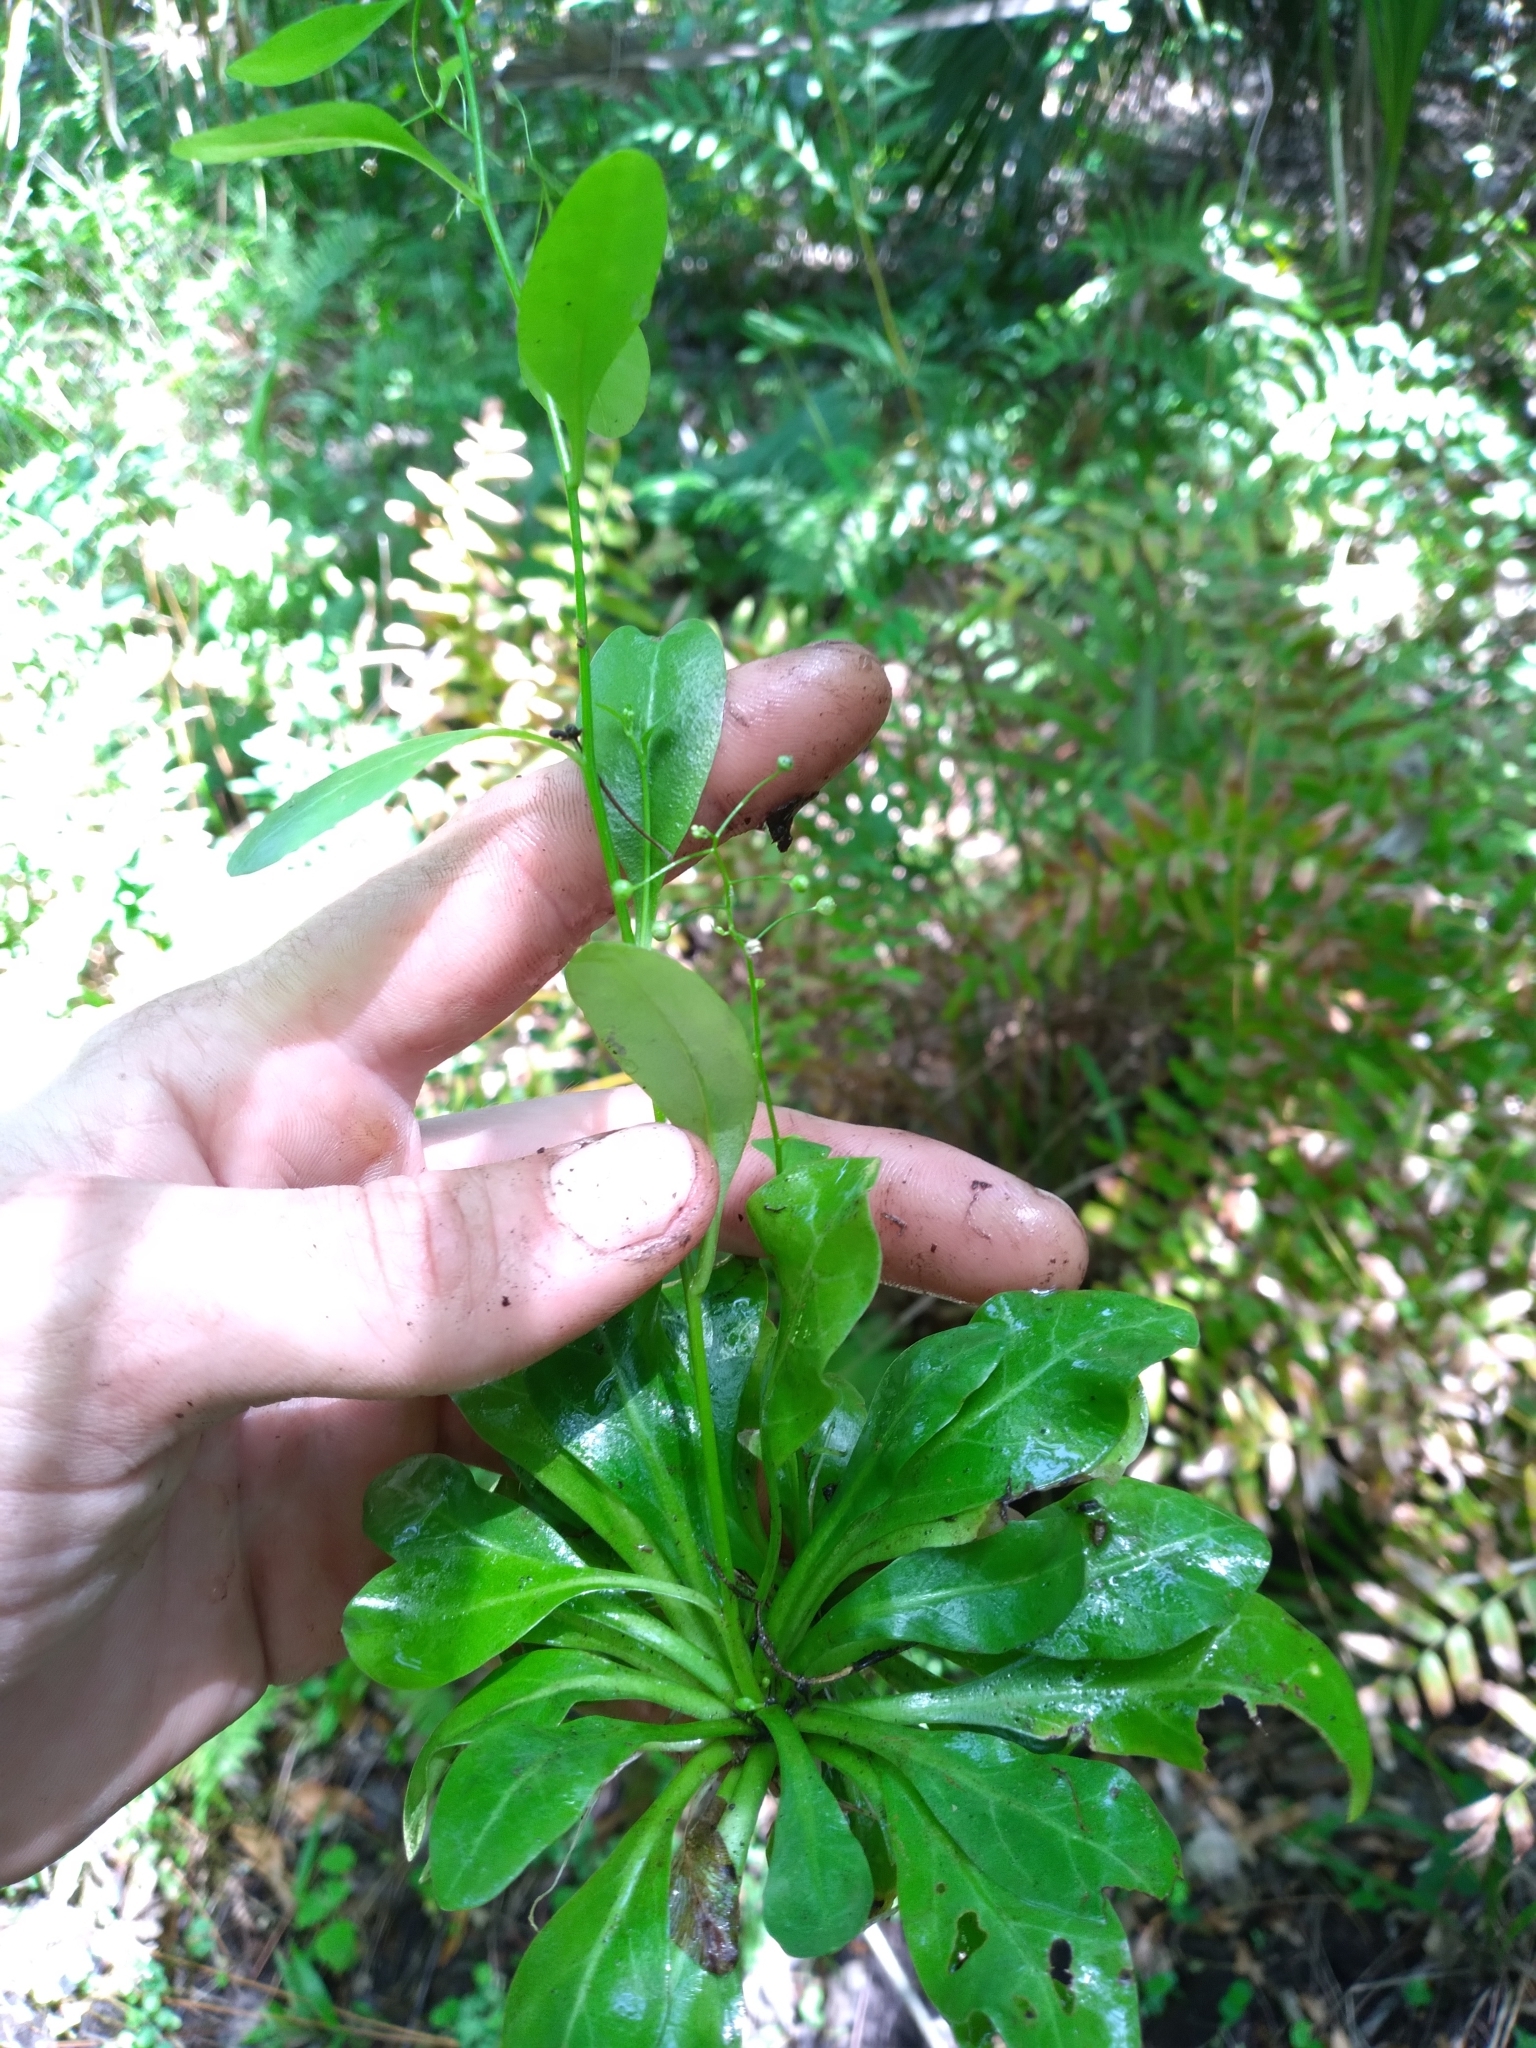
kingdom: Plantae
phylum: Tracheophyta
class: Magnoliopsida
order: Ericales
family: Primulaceae
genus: Samolus
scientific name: Samolus parviflorus
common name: False water pimpernel
